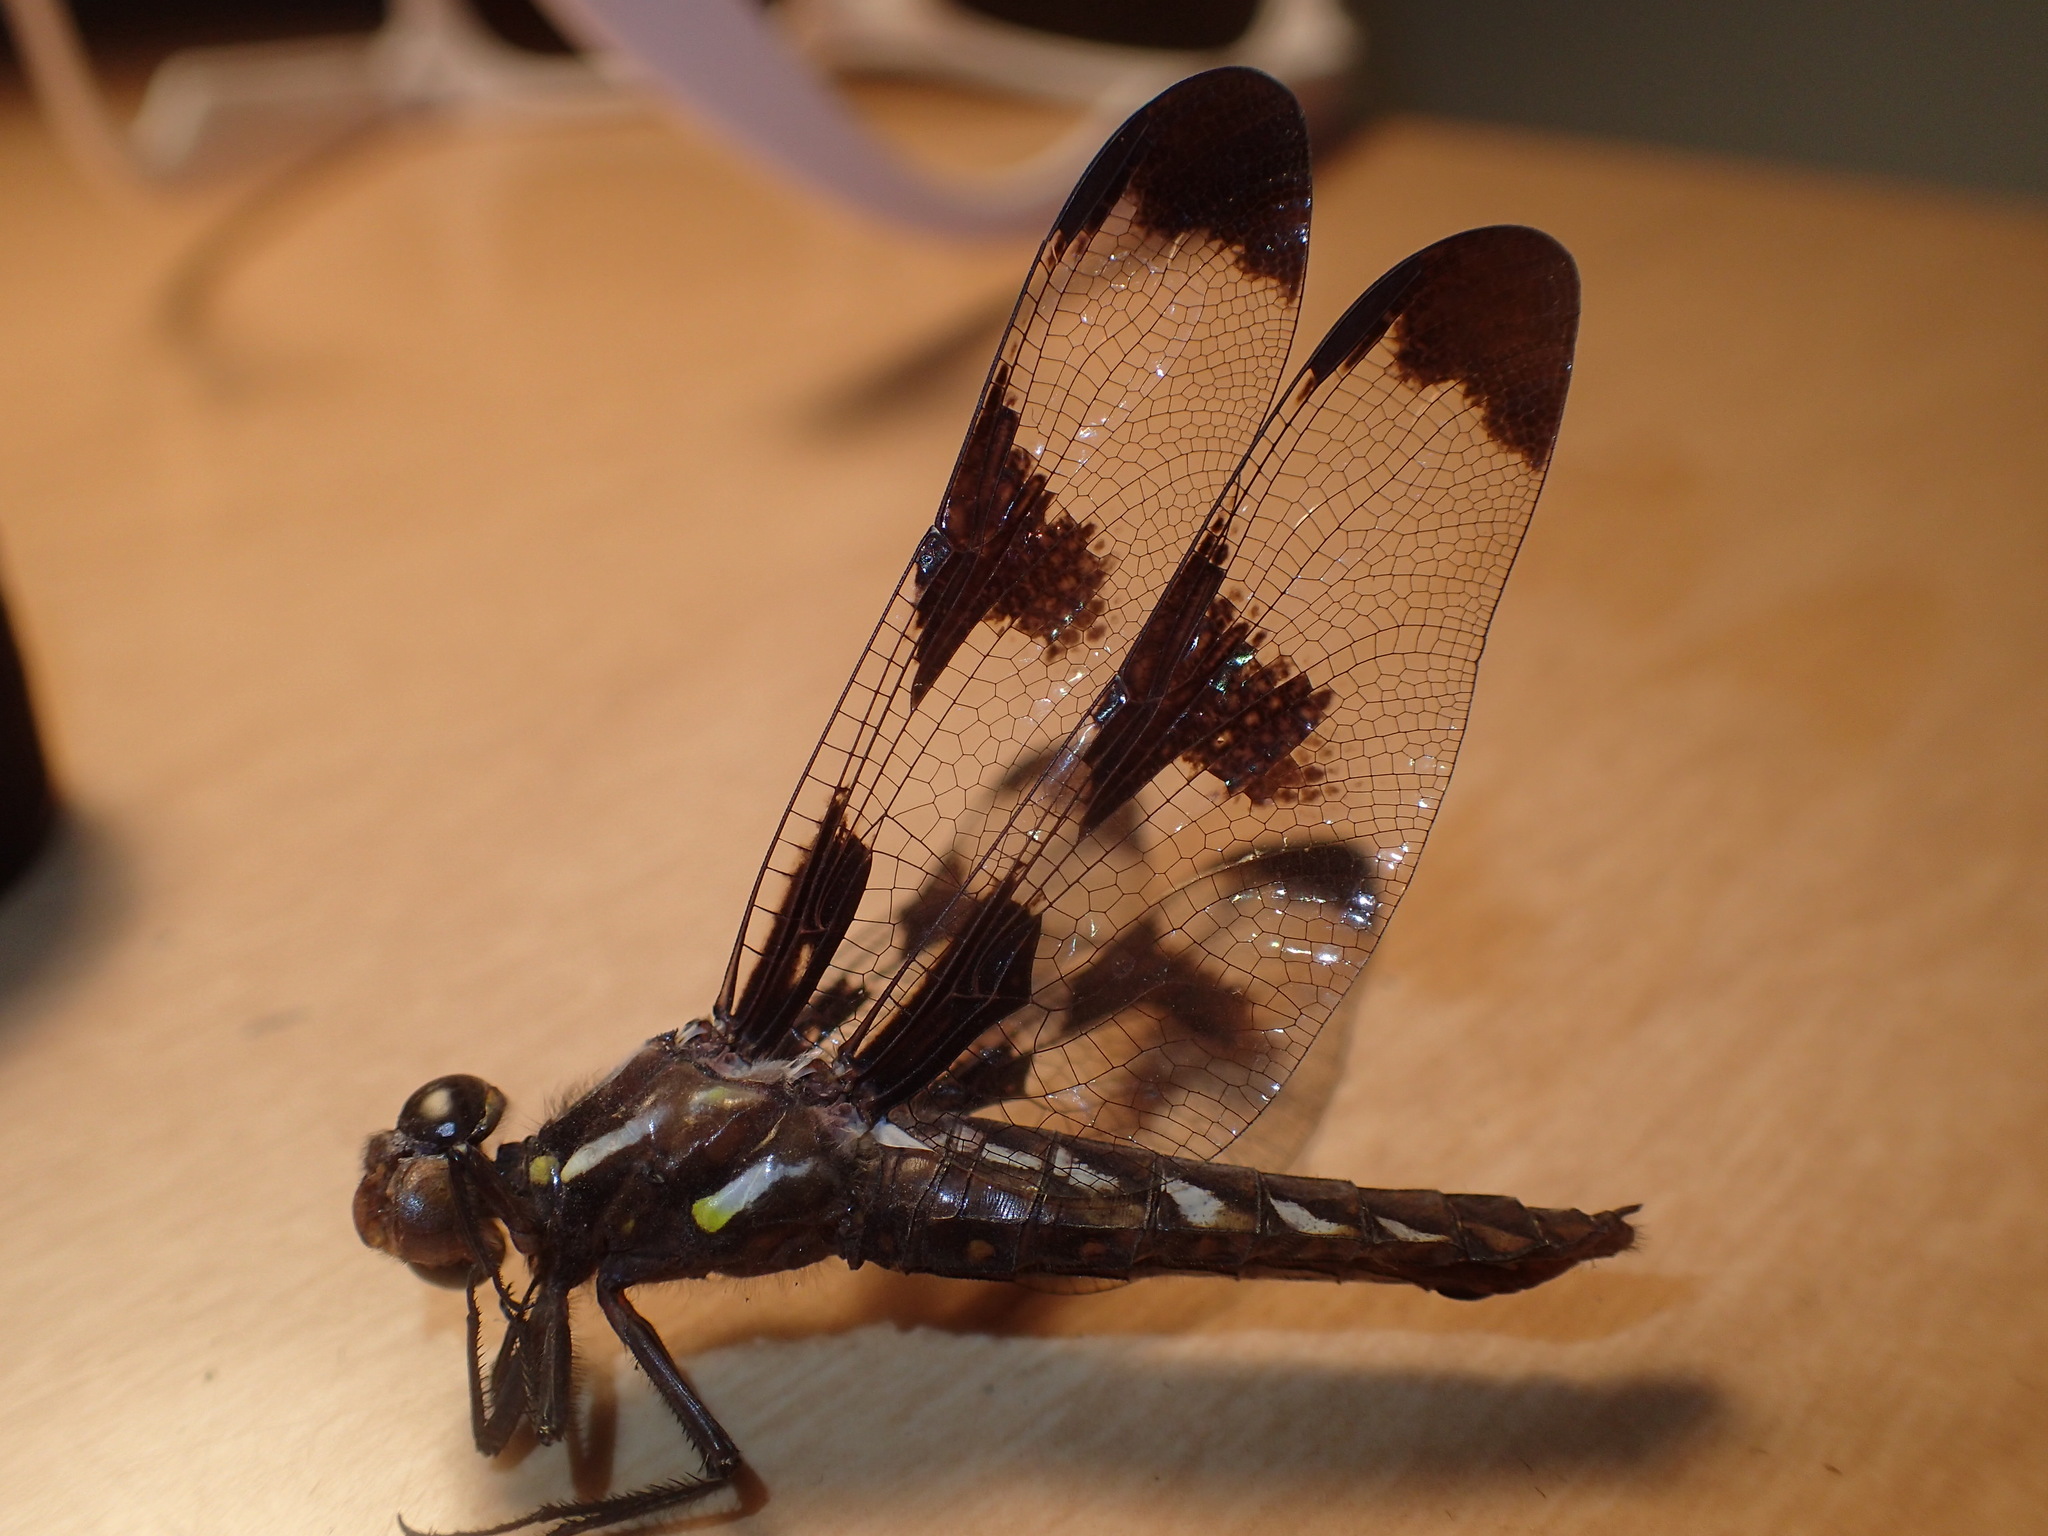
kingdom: Animalia
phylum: Arthropoda
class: Insecta
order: Odonata
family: Libellulidae
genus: Plathemis
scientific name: Plathemis lydia
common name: Common whitetail
